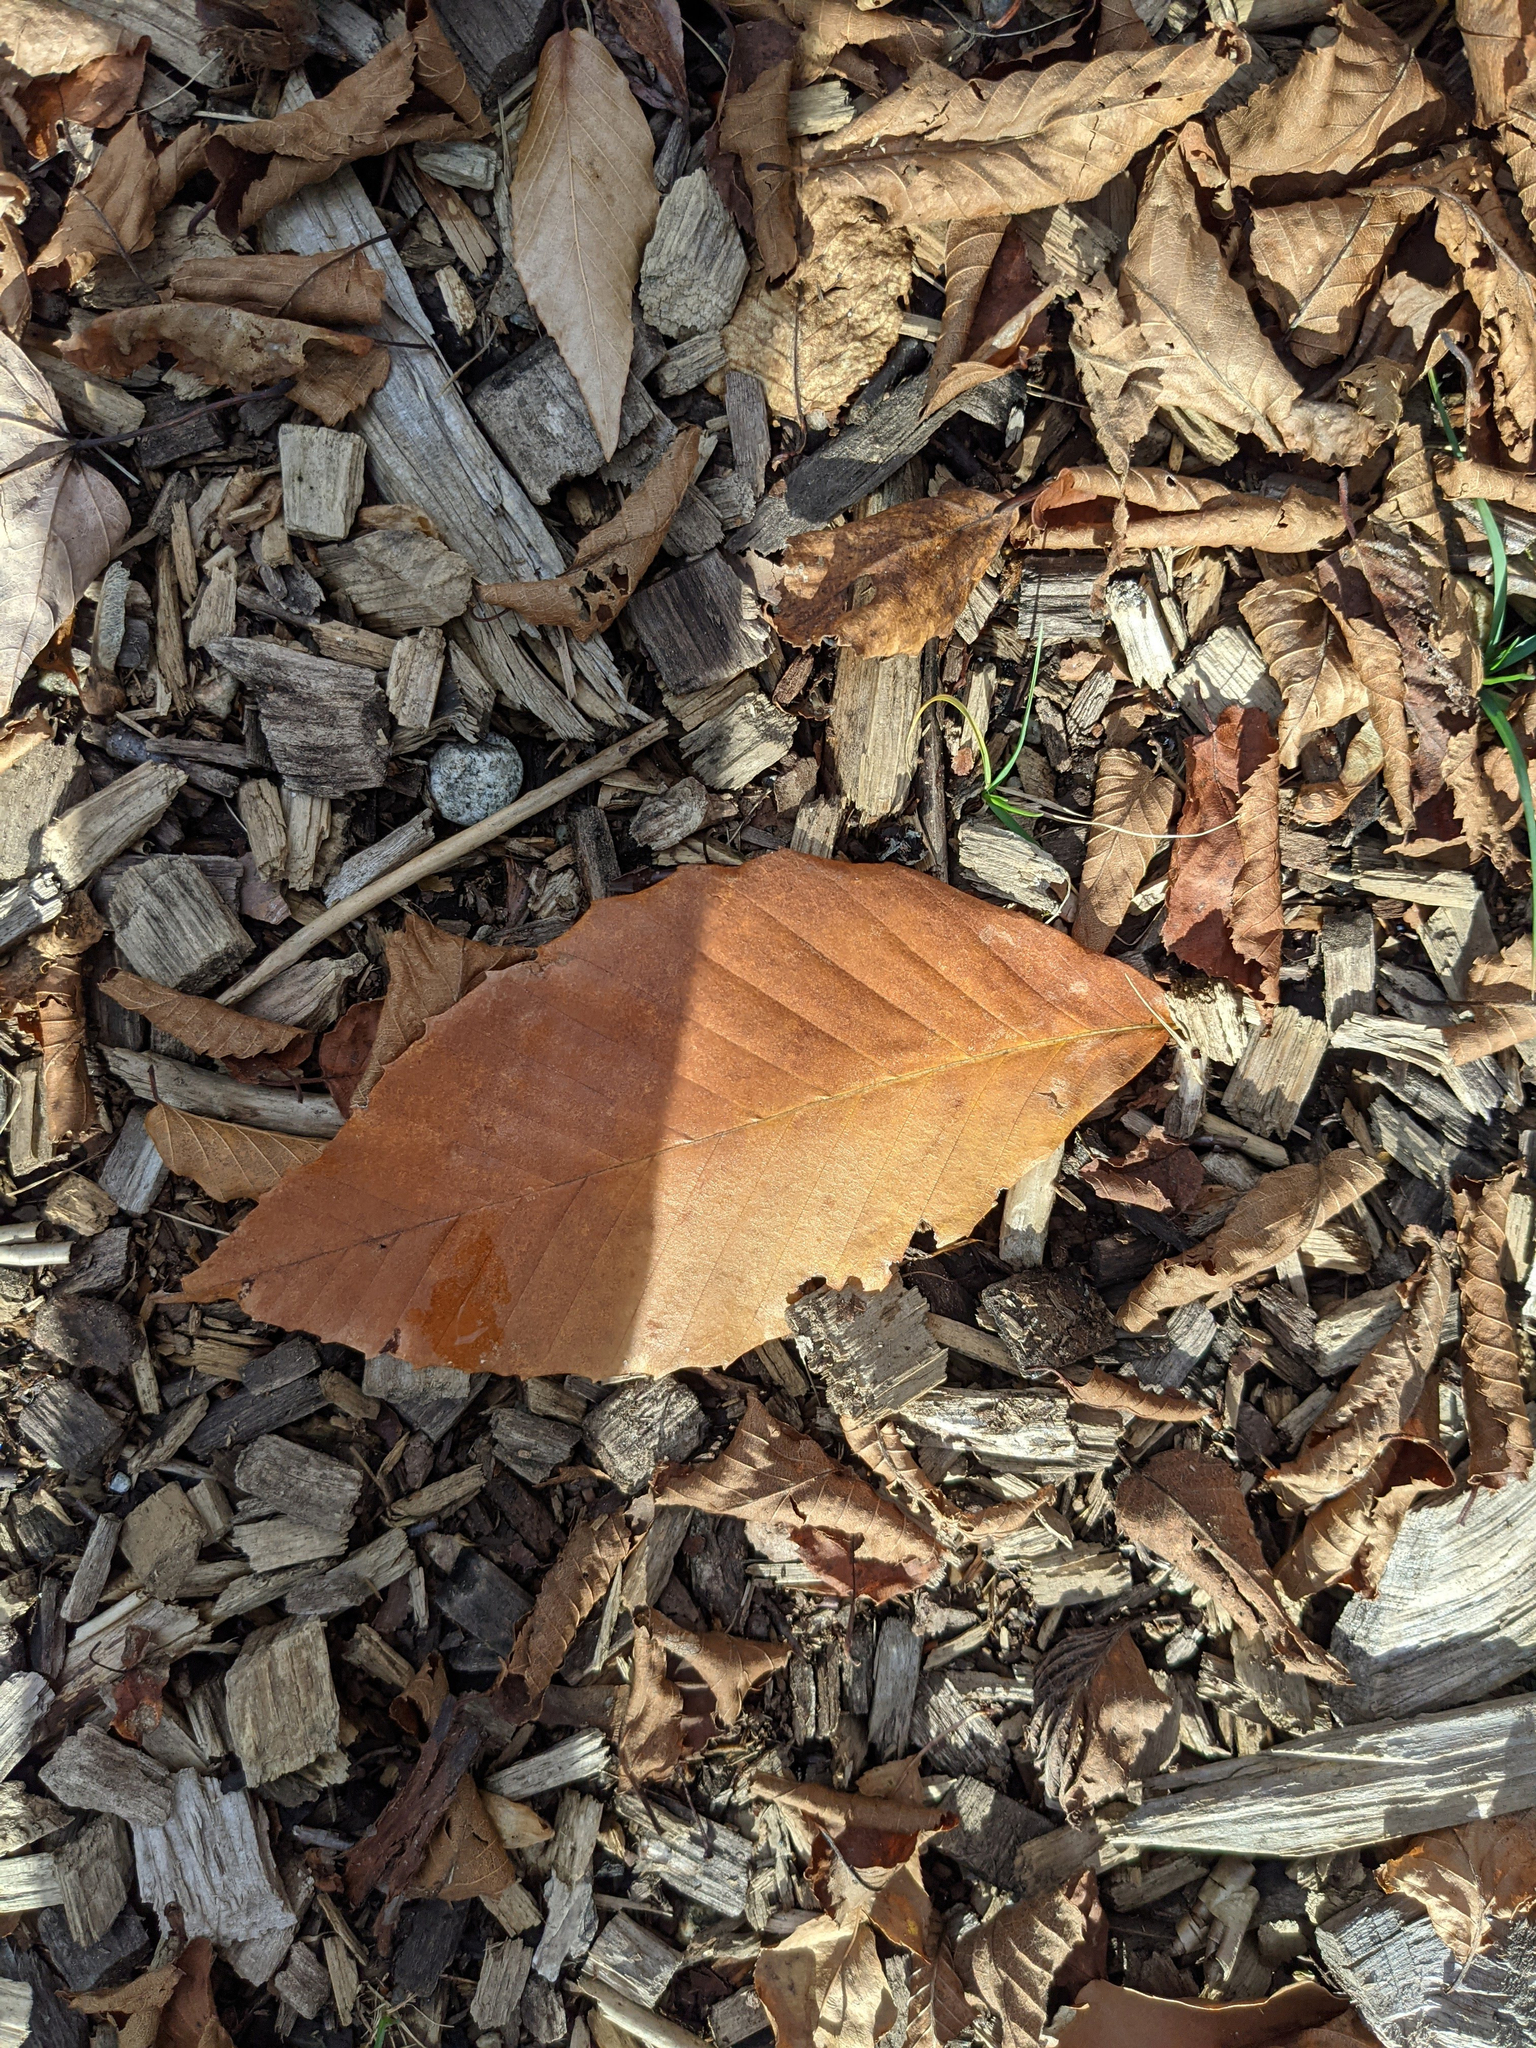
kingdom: Plantae
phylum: Tracheophyta
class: Magnoliopsida
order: Fagales
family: Fagaceae
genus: Fagus
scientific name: Fagus grandifolia
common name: American beech
